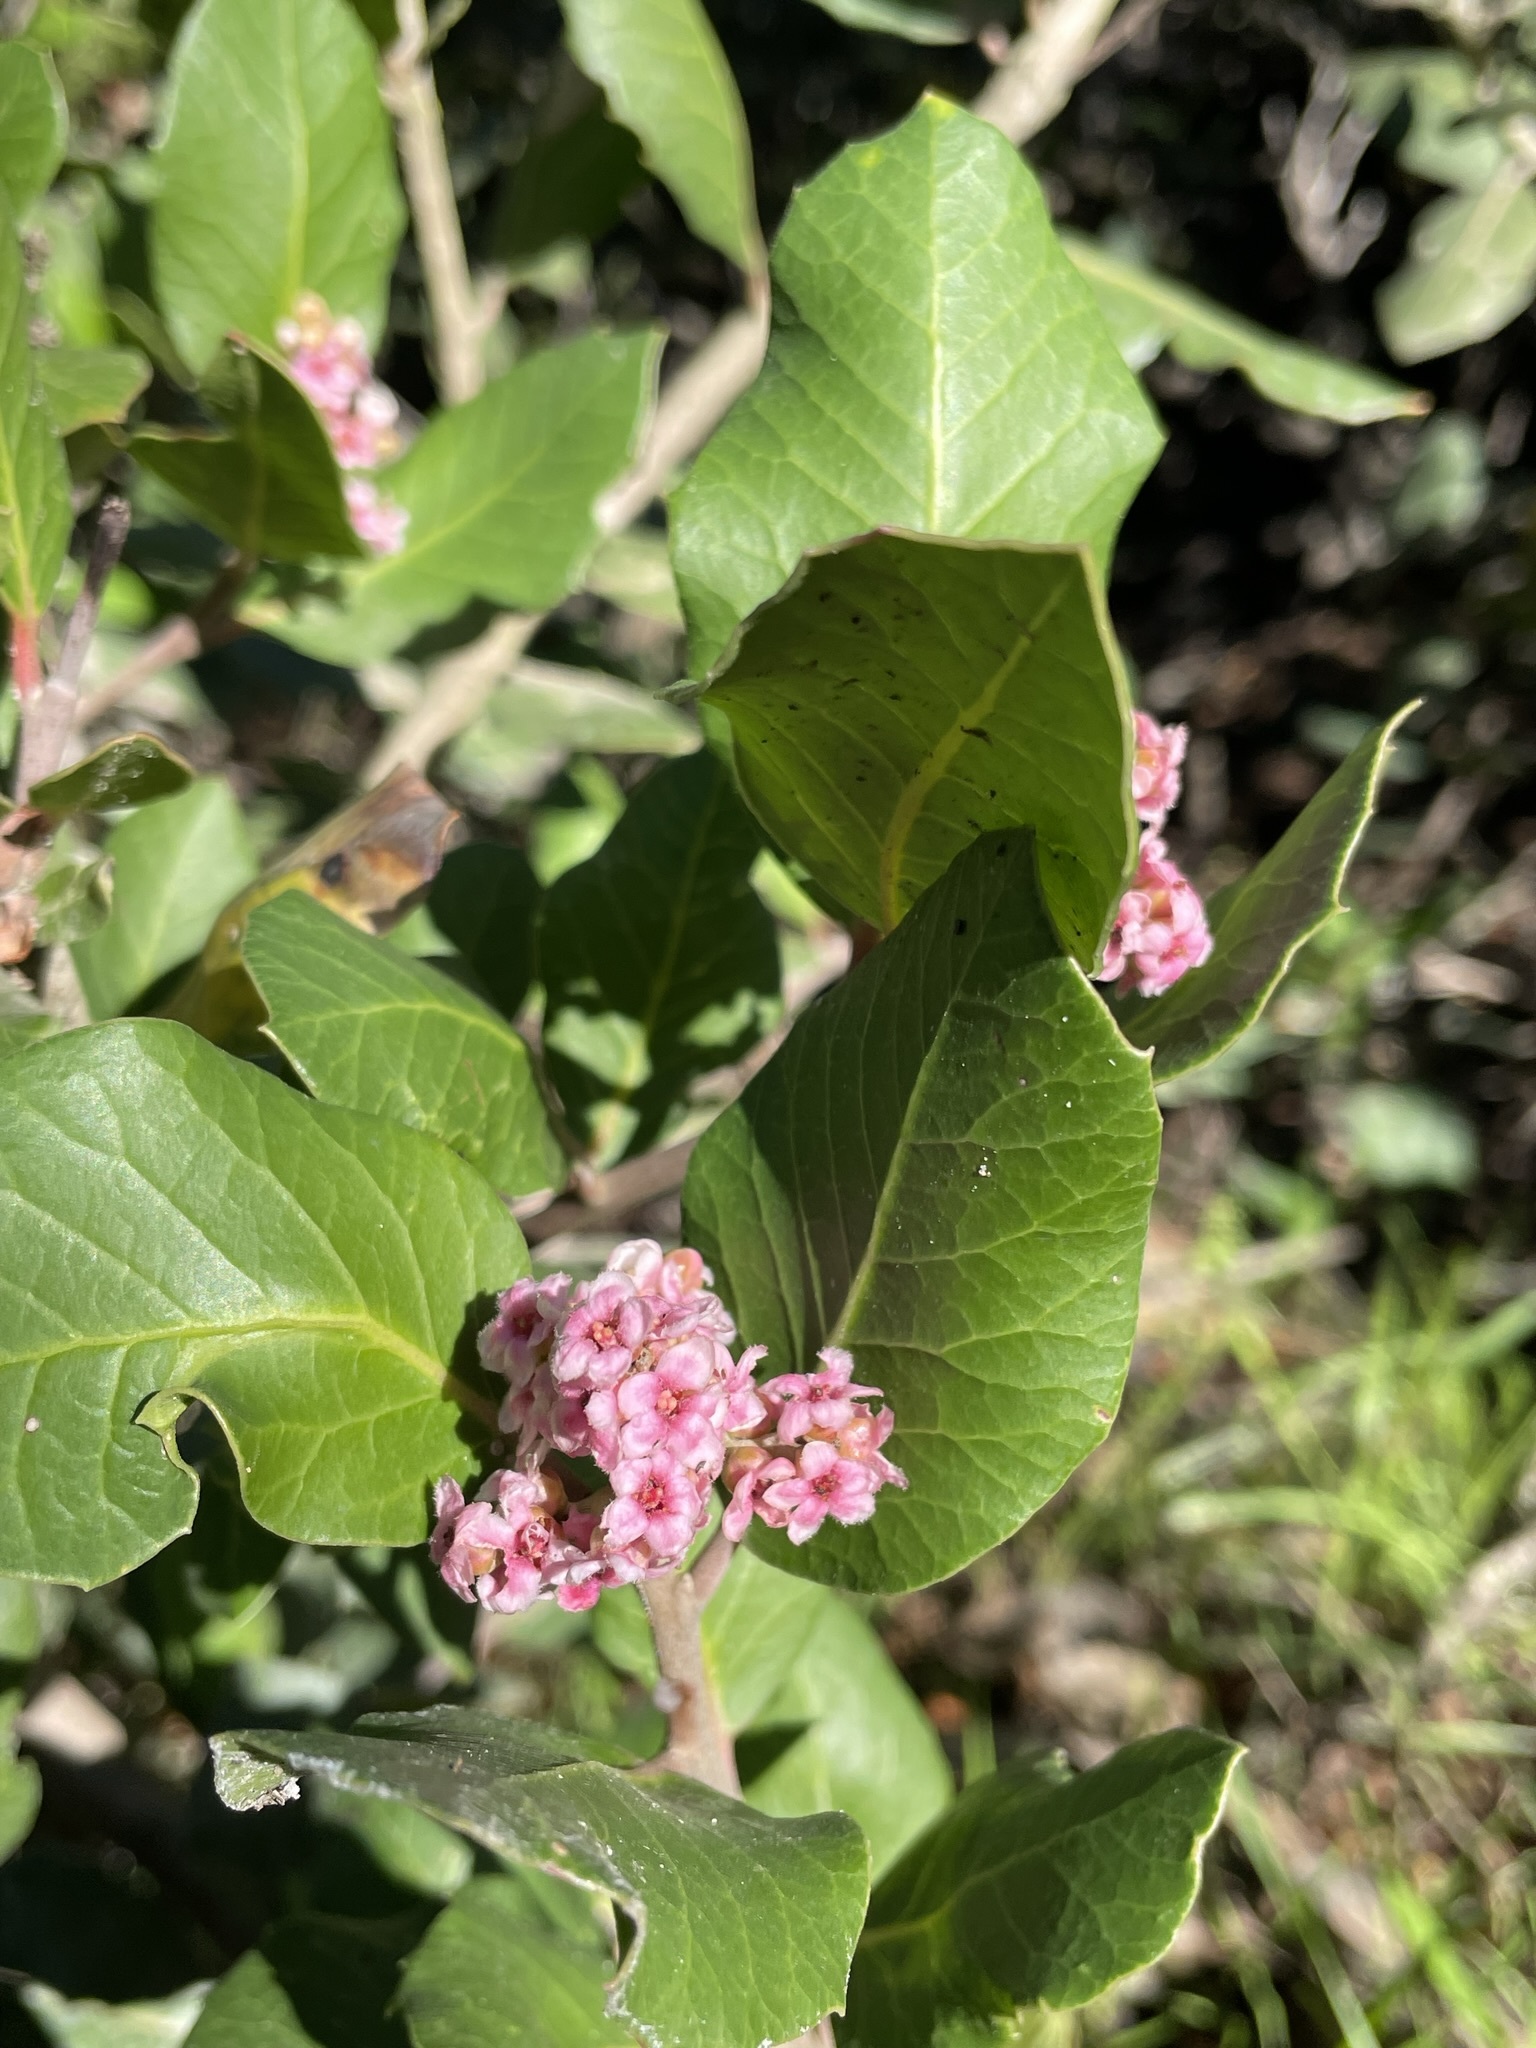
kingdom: Plantae
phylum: Tracheophyta
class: Magnoliopsida
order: Sapindales
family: Anacardiaceae
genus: Rhus
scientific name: Rhus integrifolia
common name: Lemonade sumac
